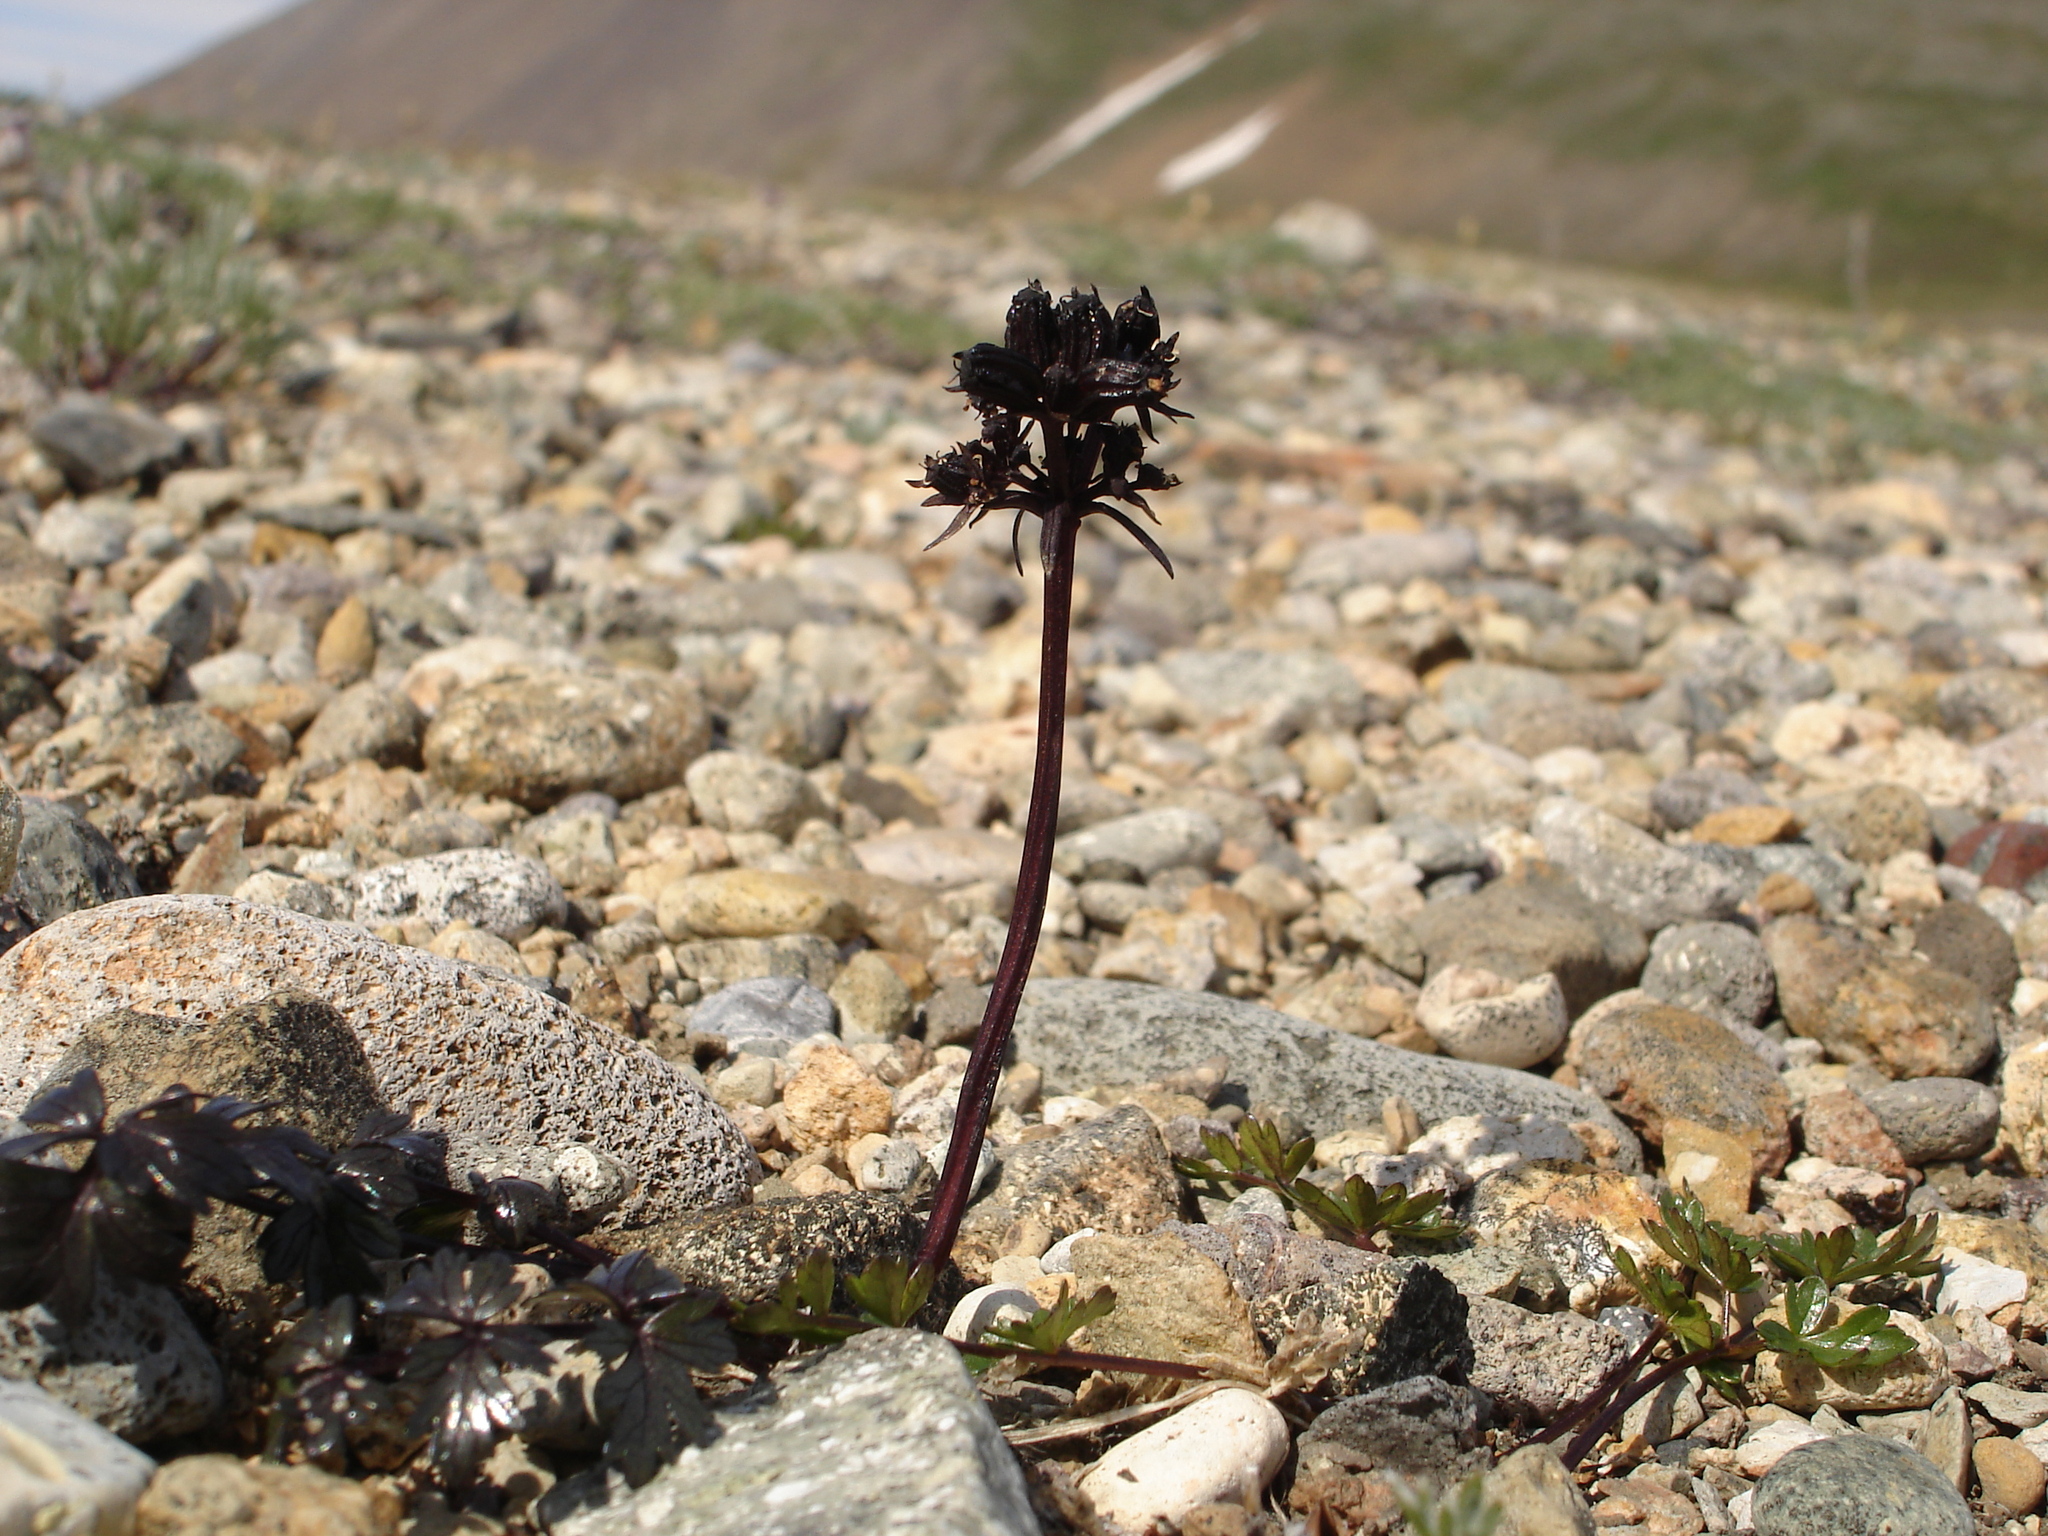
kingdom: Plantae
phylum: Tracheophyta
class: Magnoliopsida
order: Apiales
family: Apiaceae
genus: Orumbella
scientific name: Orumbella macounii
